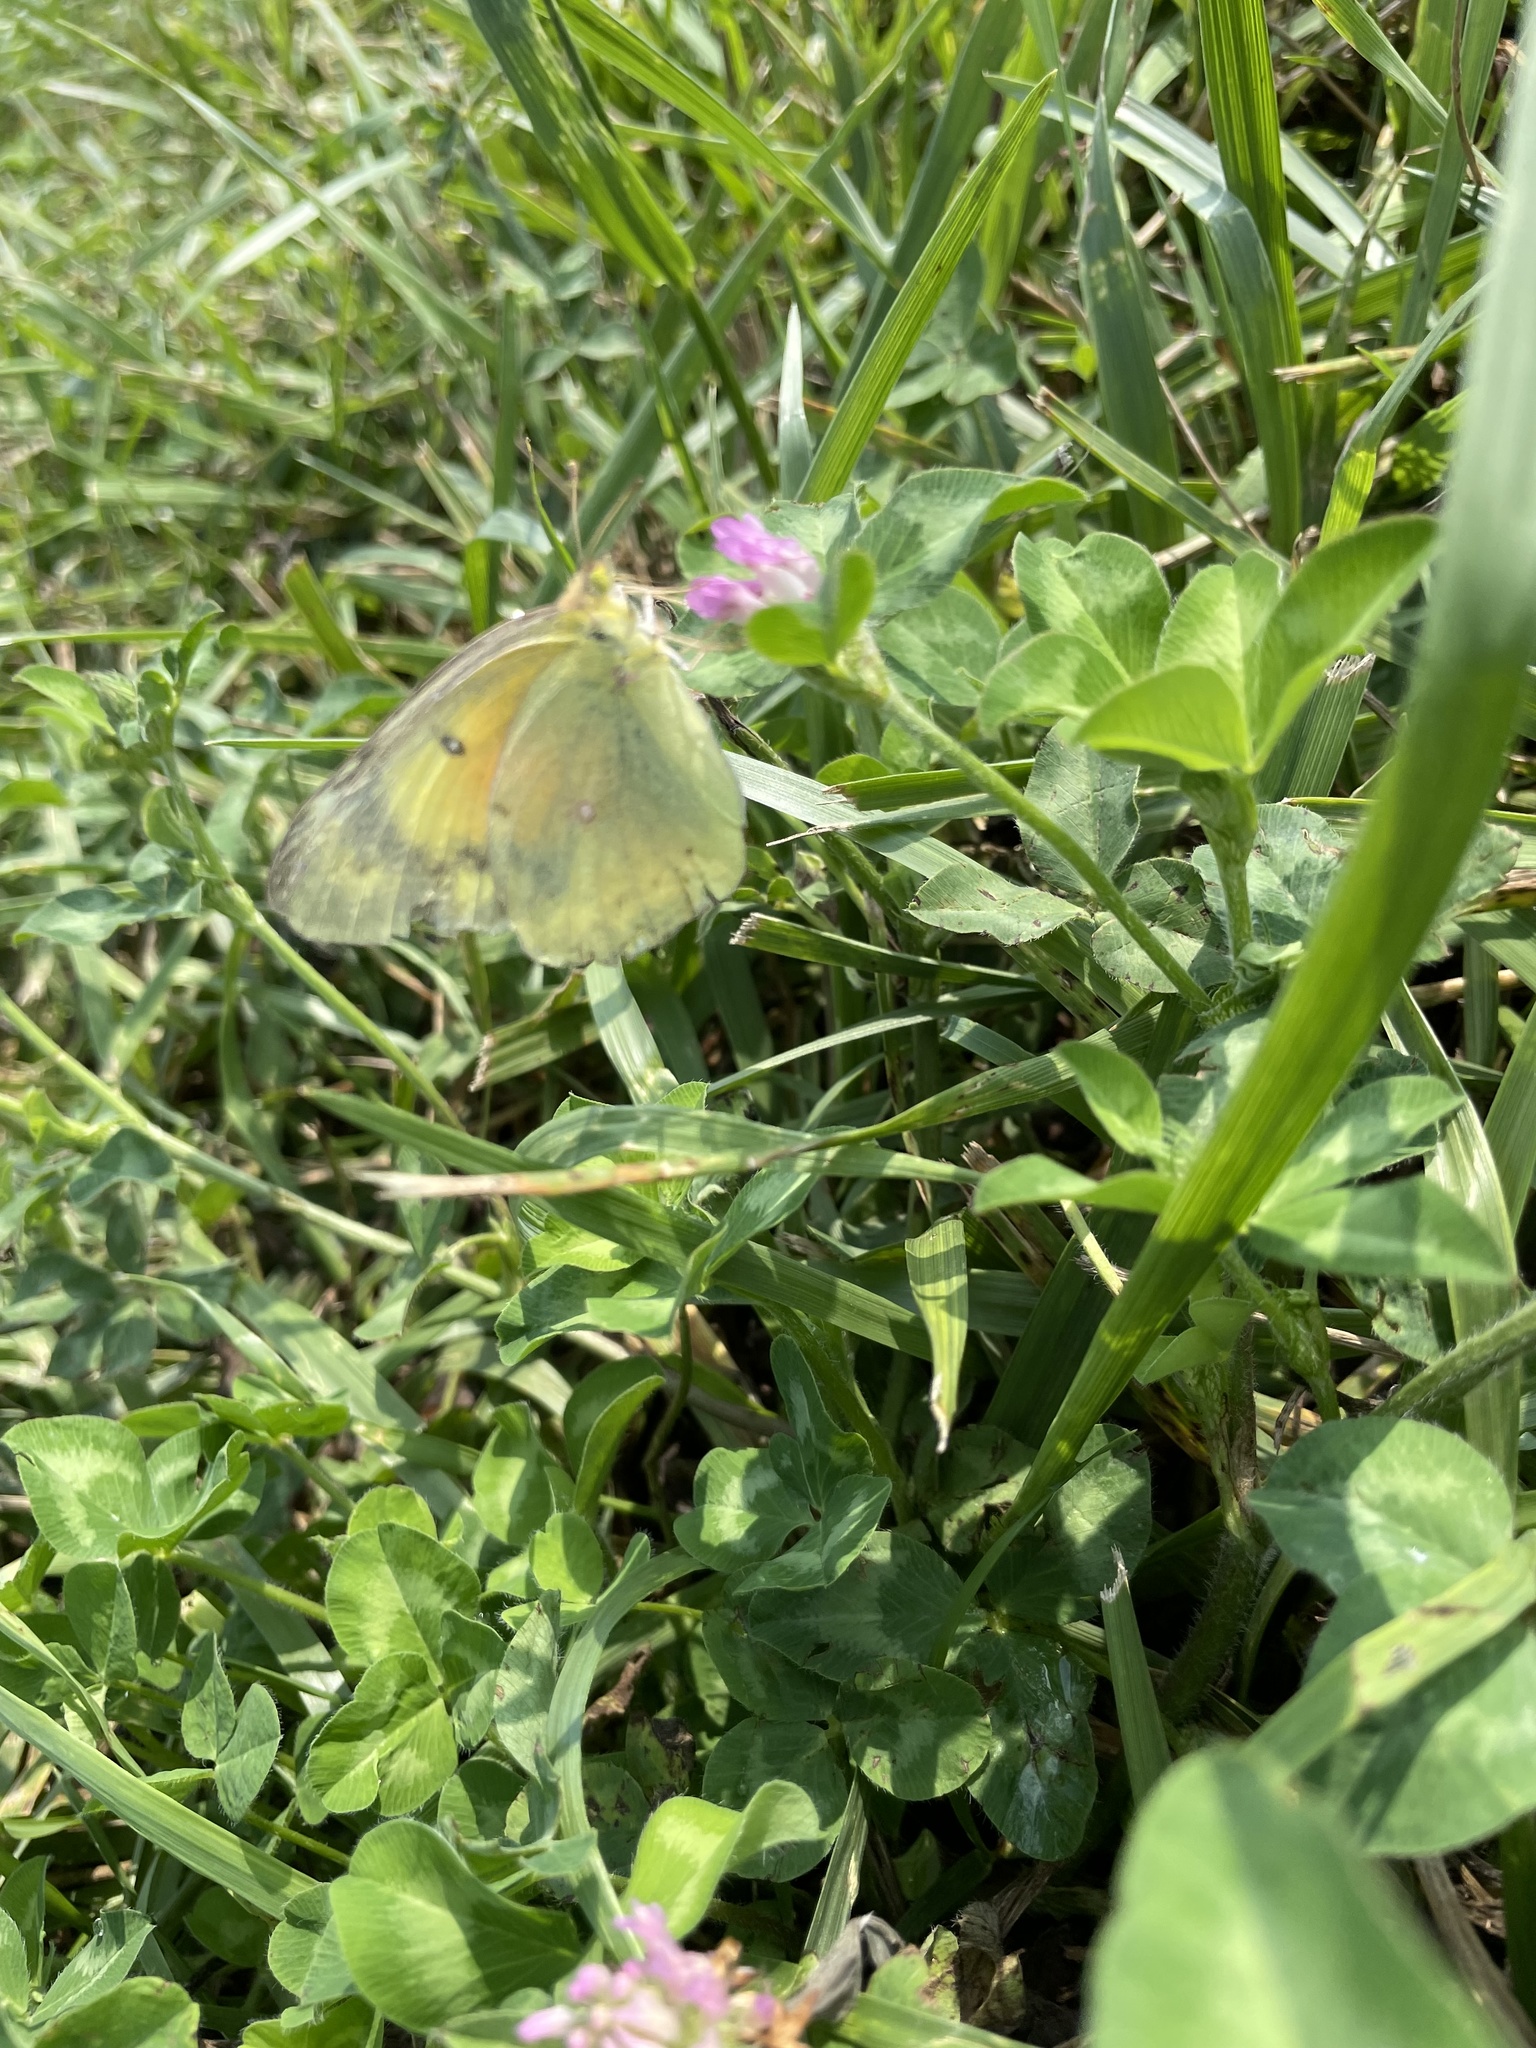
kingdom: Animalia
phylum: Arthropoda
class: Insecta
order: Lepidoptera
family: Pieridae
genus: Colias
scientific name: Colias eurytheme
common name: Alfalfa butterfly
